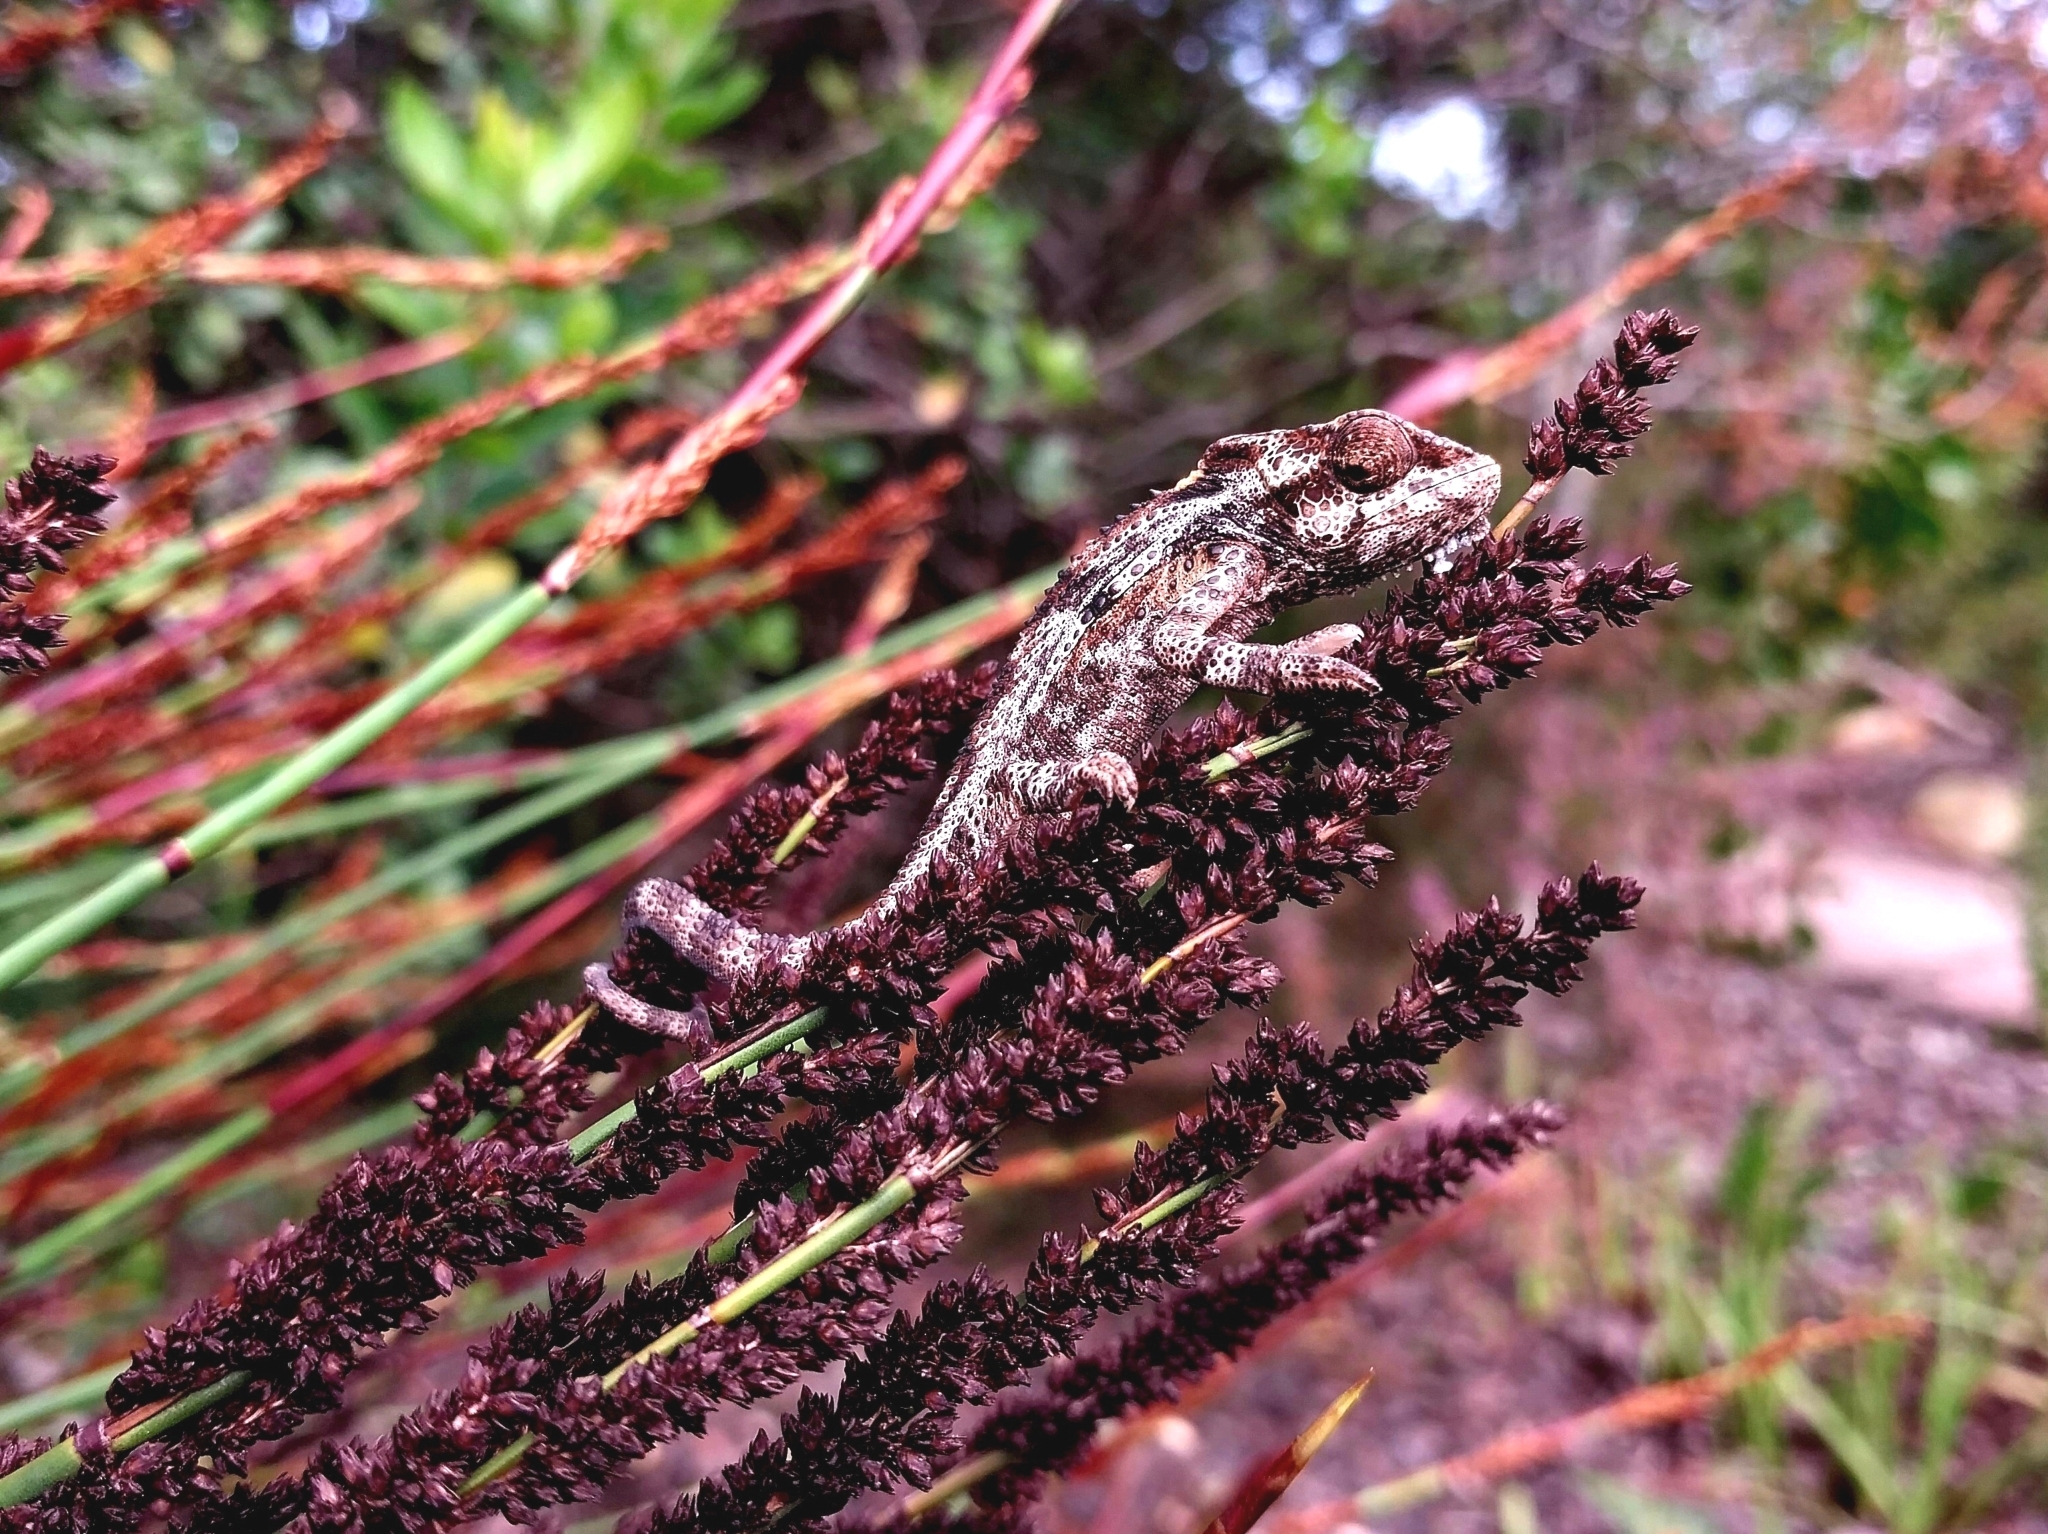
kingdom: Animalia
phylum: Chordata
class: Squamata
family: Chamaeleonidae
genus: Bradypodion
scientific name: Bradypodion damaranum
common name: Knysna dwarf chameleon
